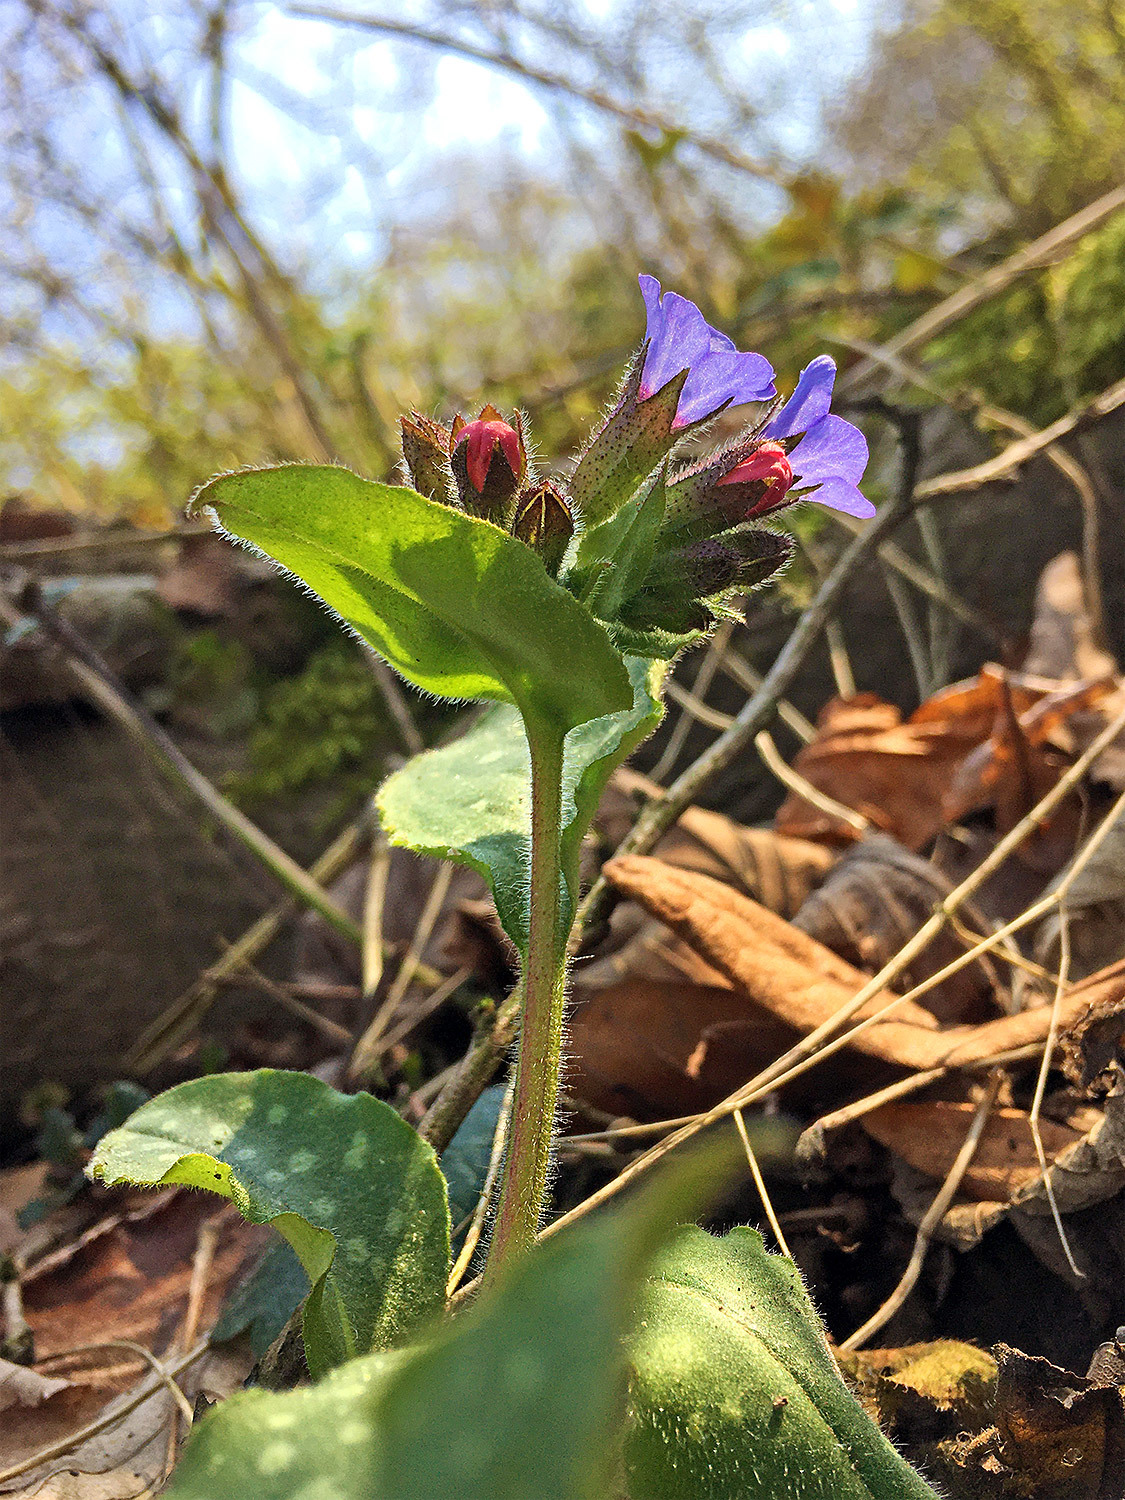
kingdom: Plantae
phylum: Tracheophyta
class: Magnoliopsida
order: Boraginales
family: Boraginaceae
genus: Pulmonaria
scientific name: Pulmonaria officinalis
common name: Lungwort
